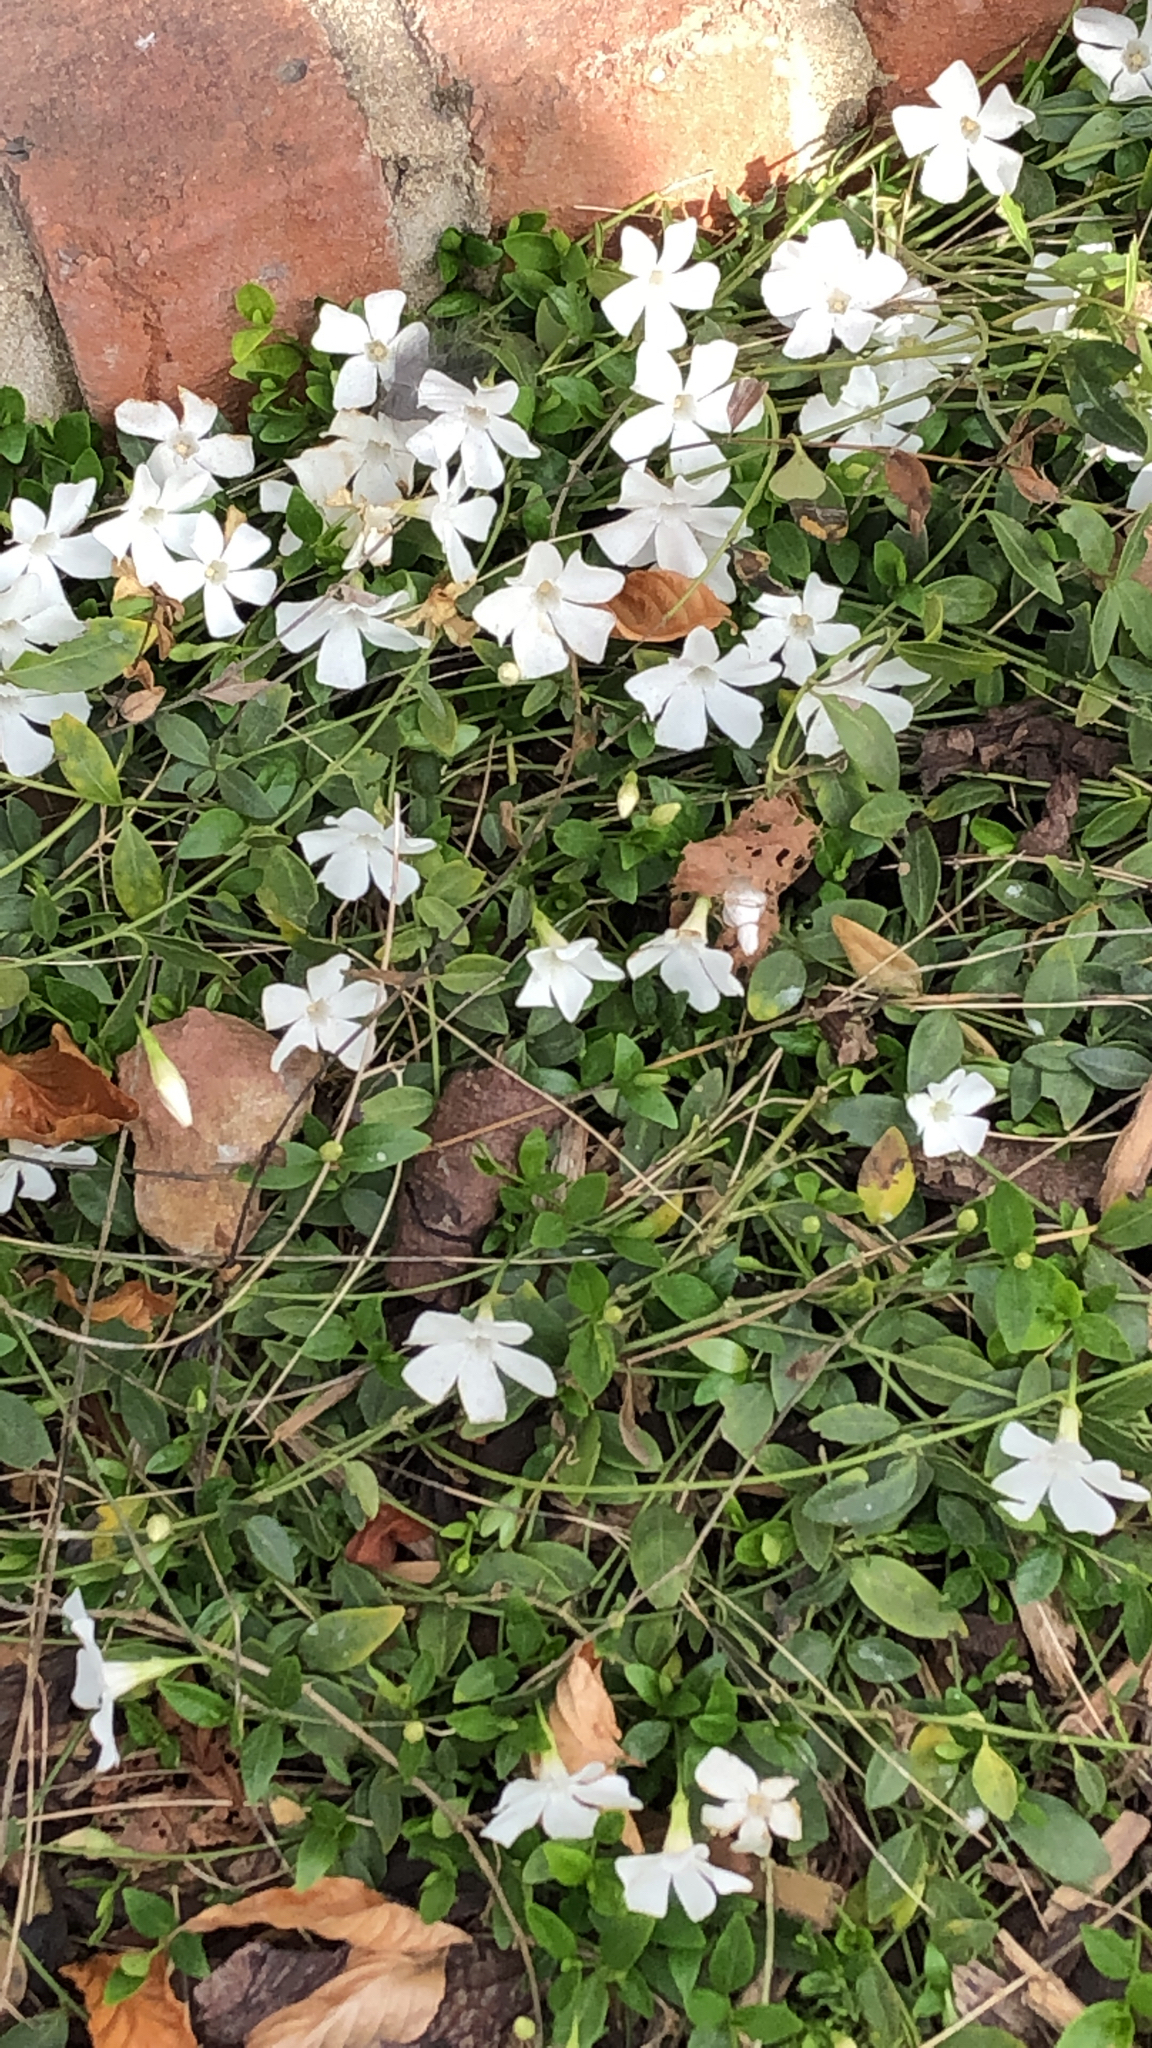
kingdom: Plantae
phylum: Tracheophyta
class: Magnoliopsida
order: Gentianales
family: Apocynaceae
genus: Vinca
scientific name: Vinca minor
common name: Lesser periwinkle
